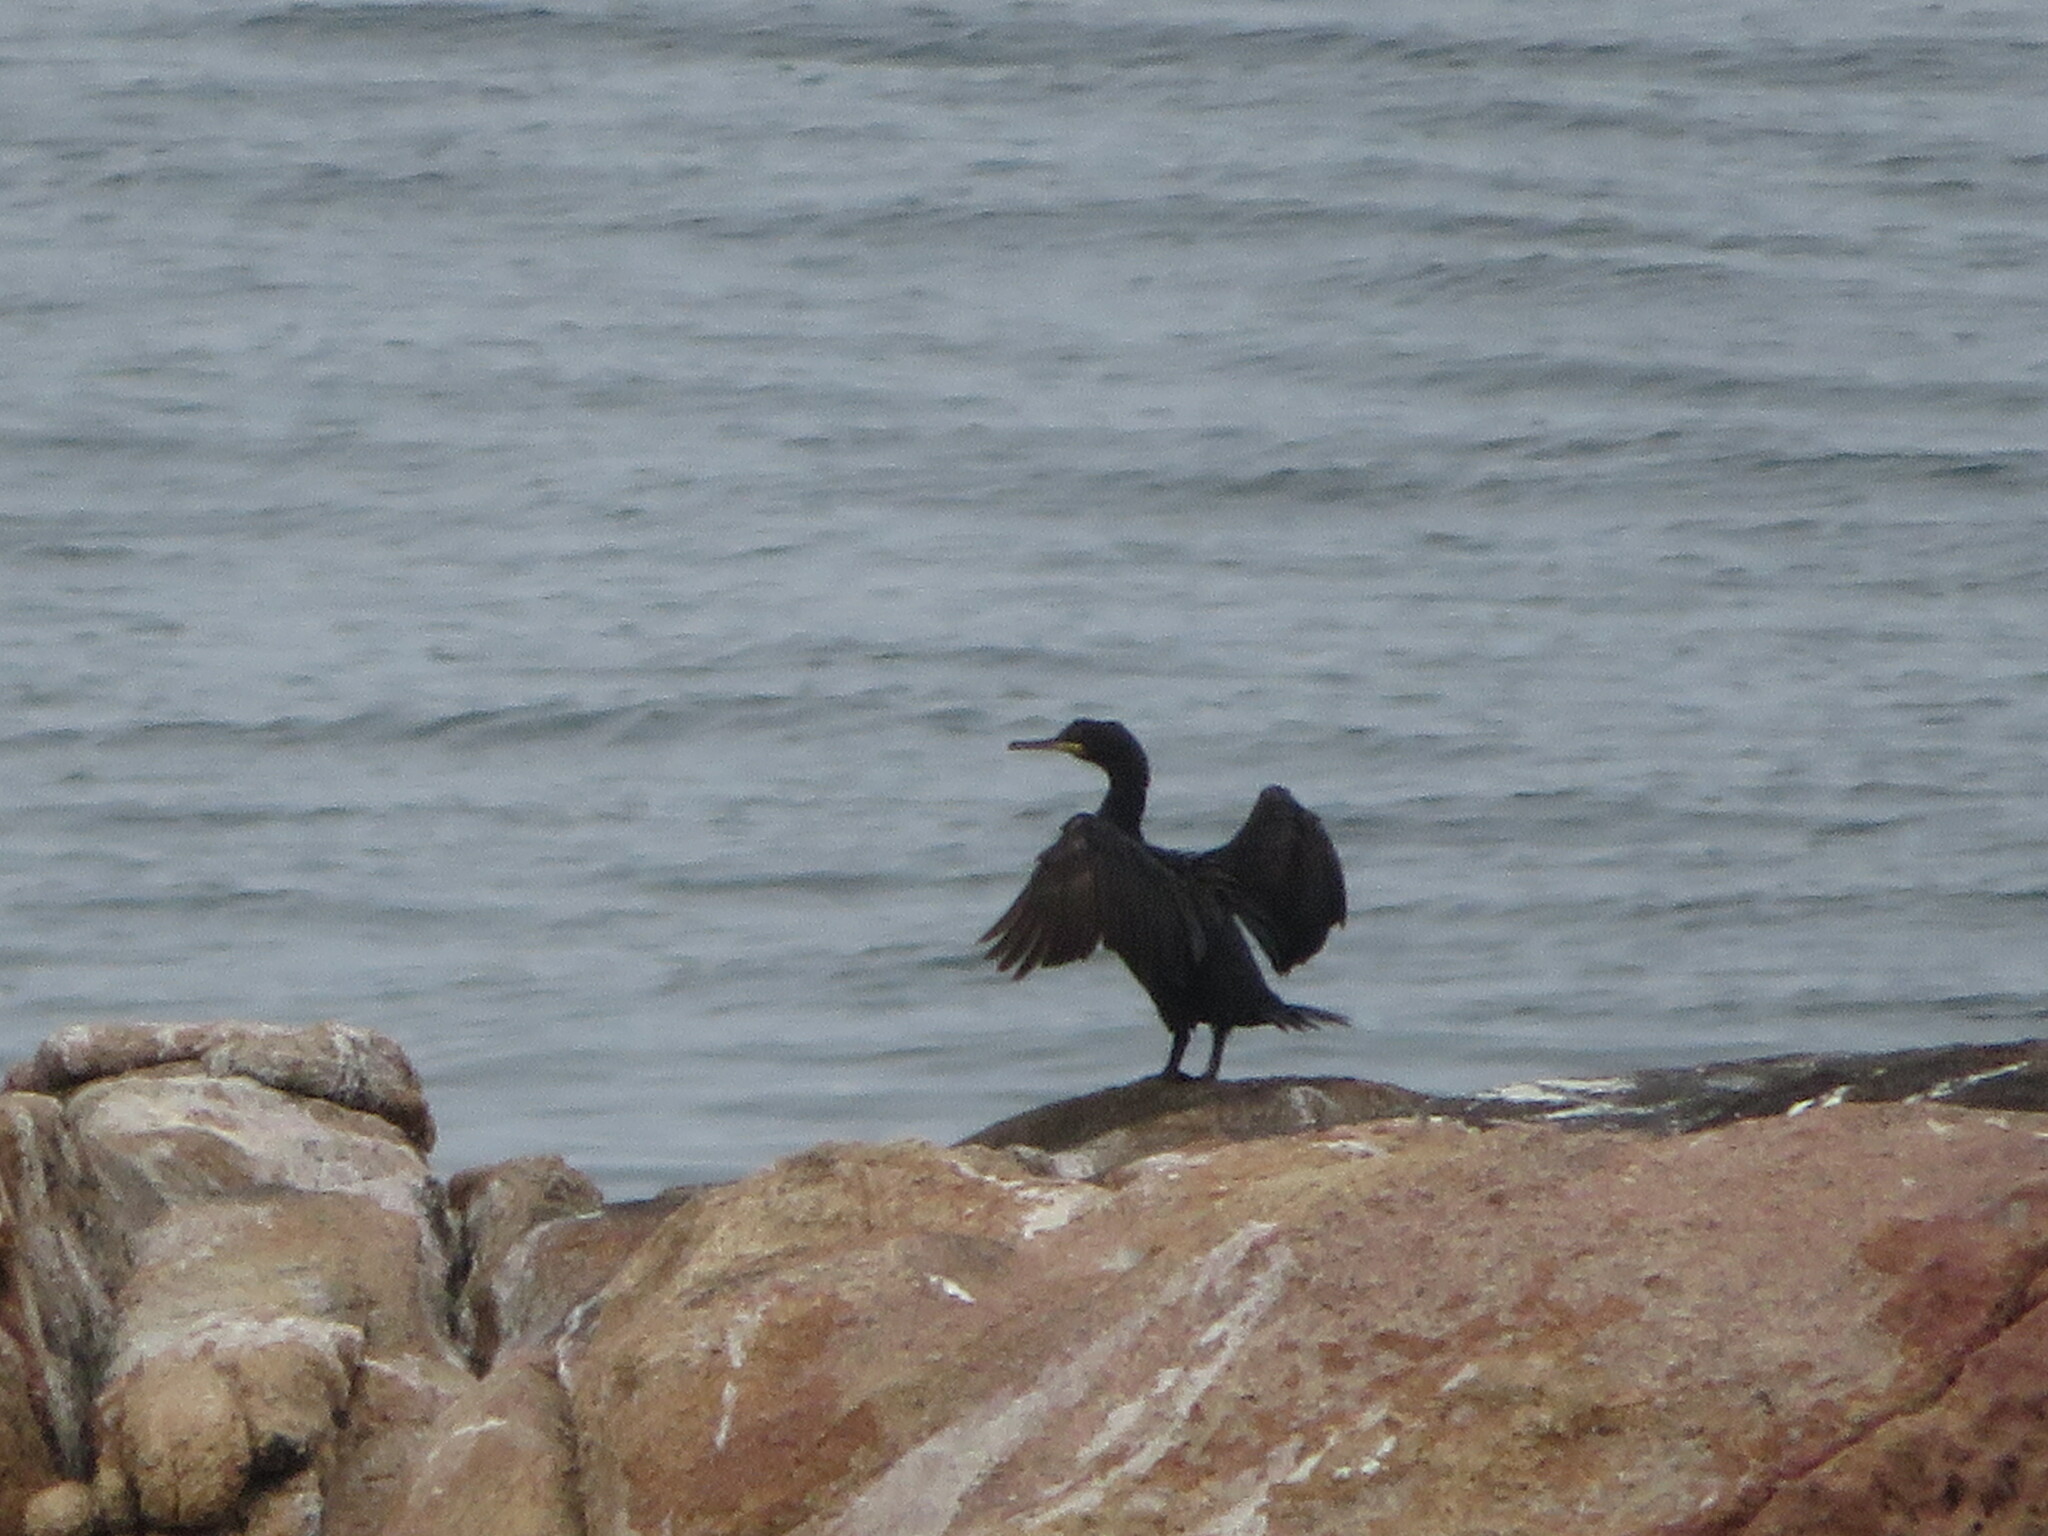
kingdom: Animalia
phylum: Chordata
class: Aves
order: Suliformes
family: Phalacrocoracidae
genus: Phalacrocorax
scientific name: Phalacrocorax aristotelis
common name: European shag
